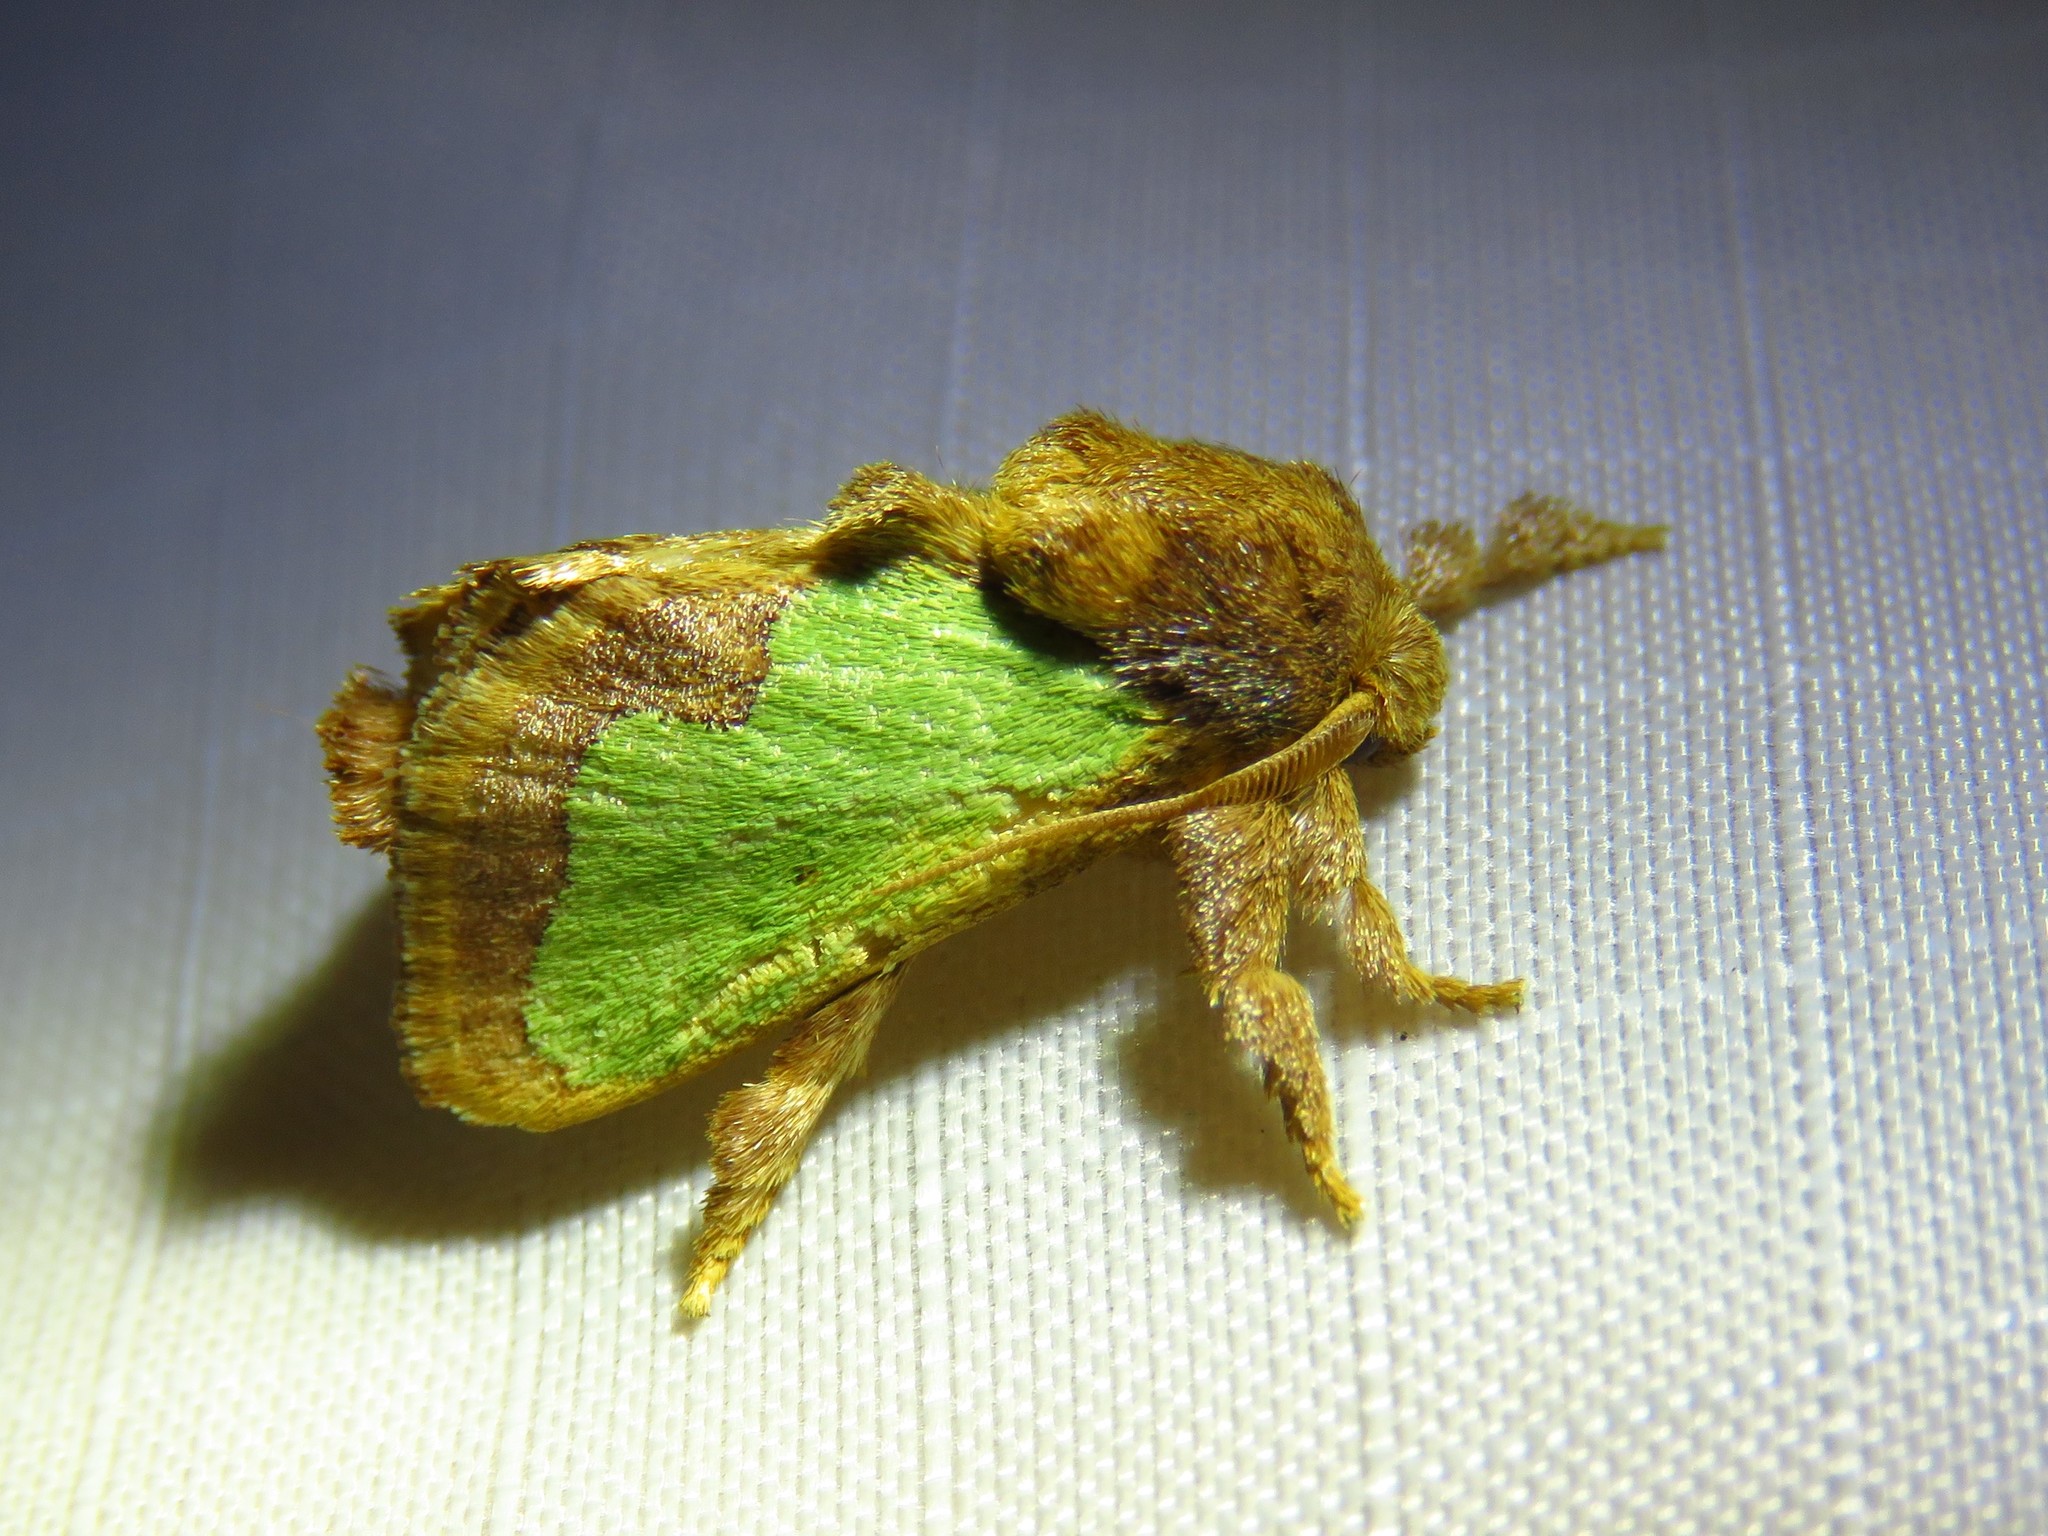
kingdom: Animalia
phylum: Arthropoda
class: Insecta
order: Lepidoptera
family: Limacodidae
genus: Euclea
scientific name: Euclea incisa
